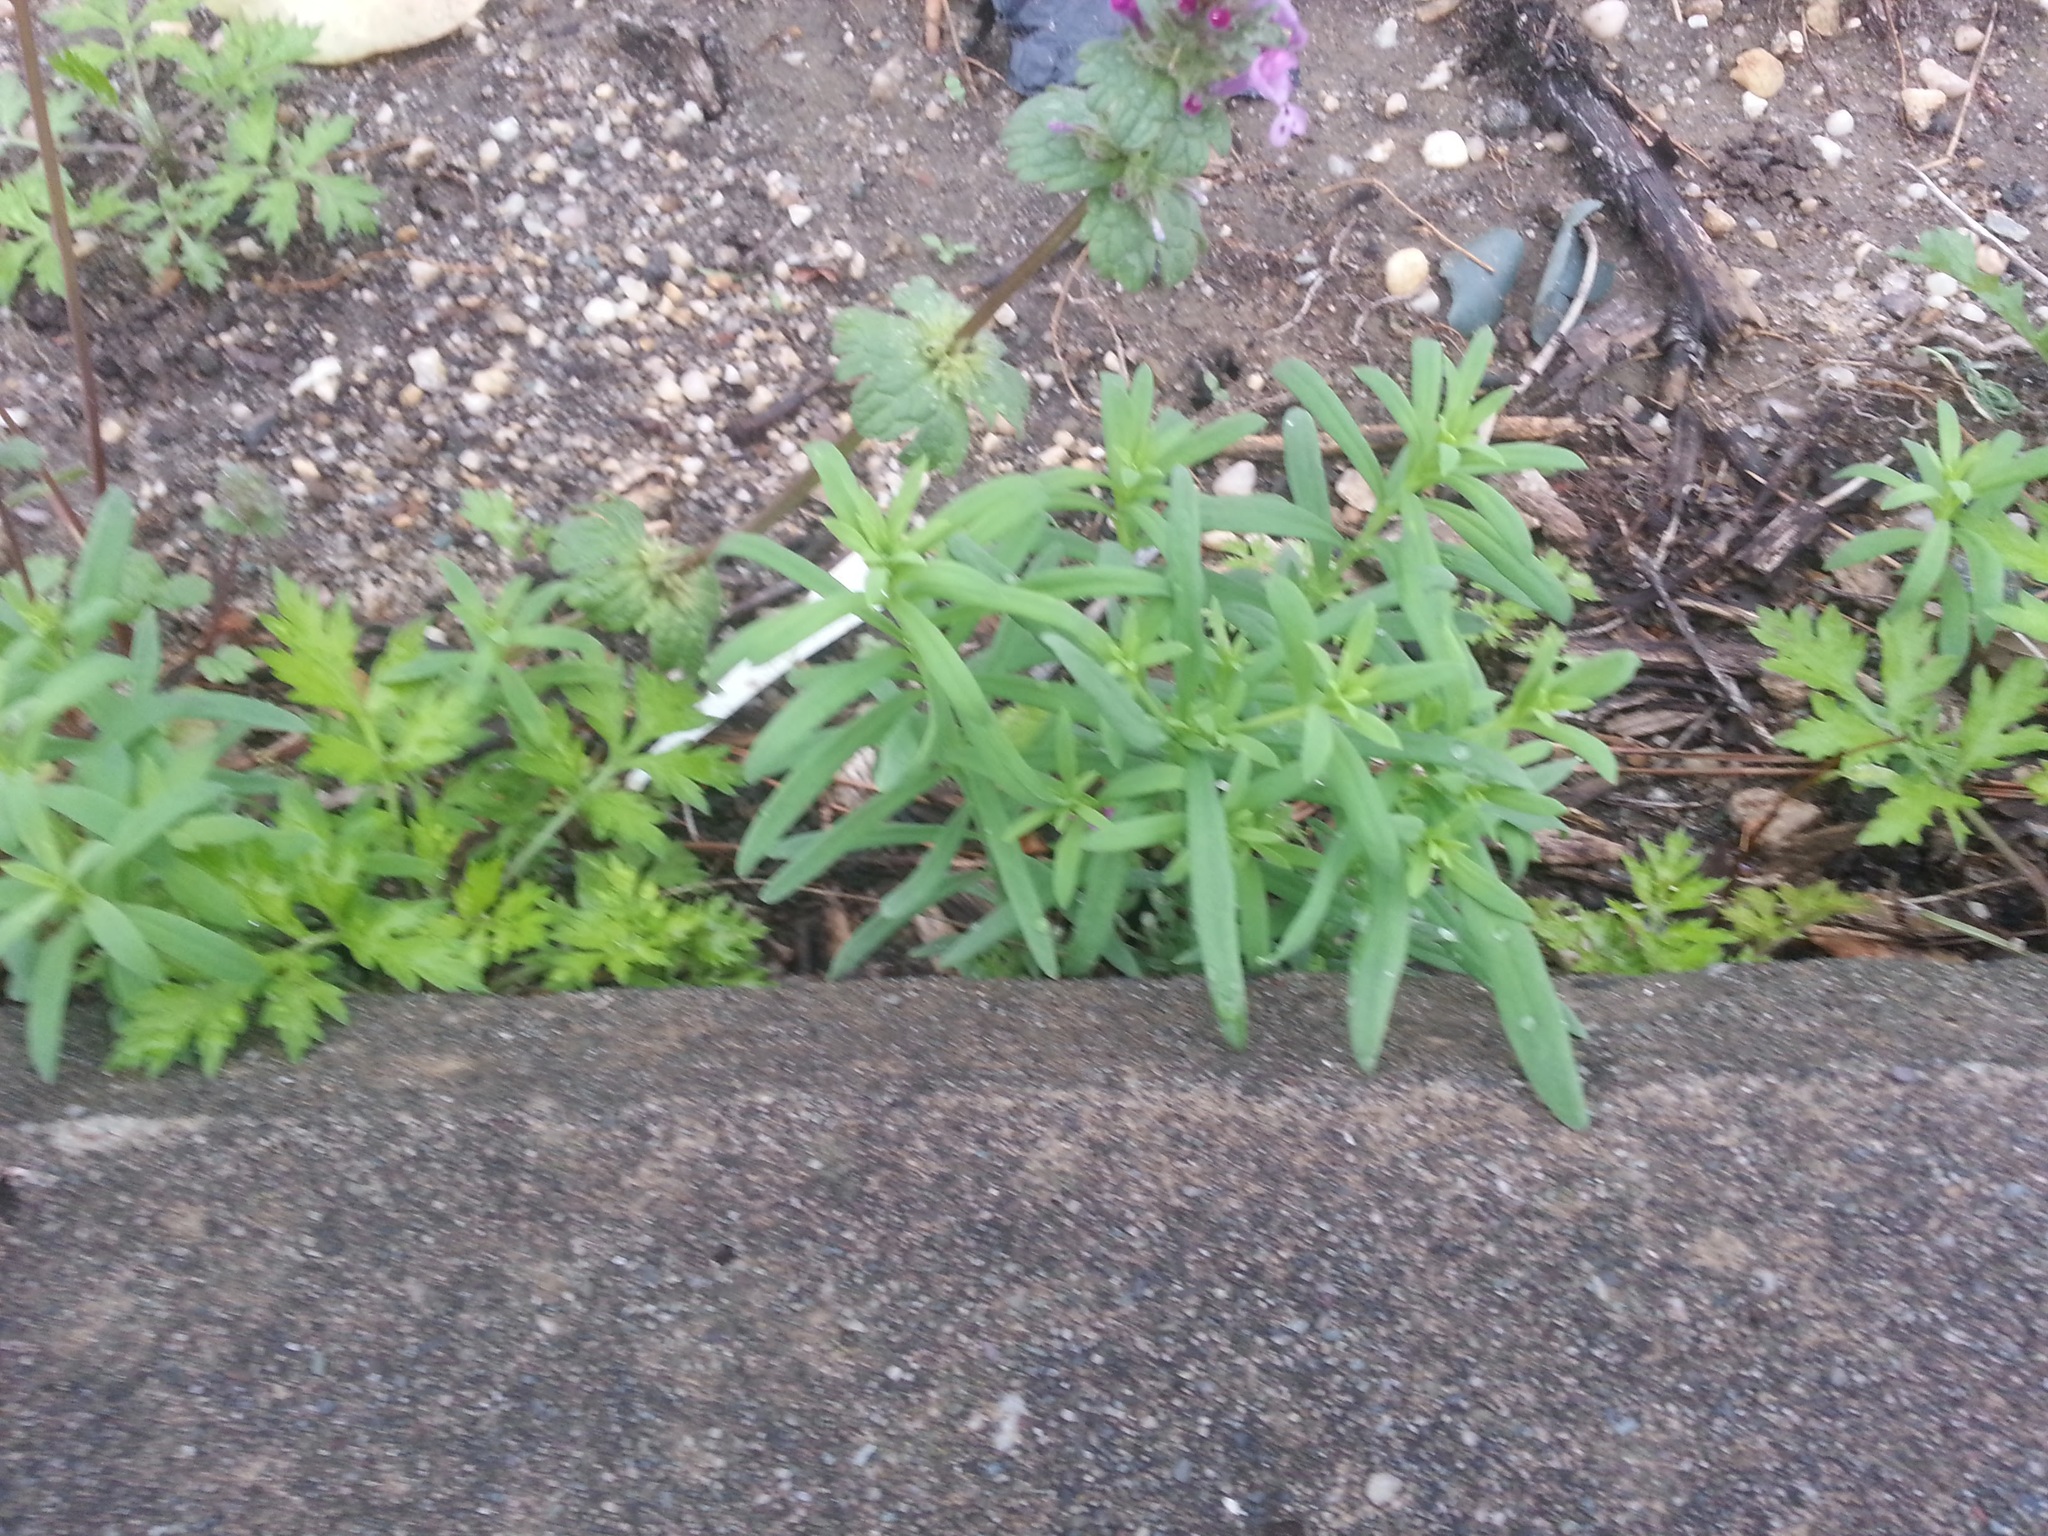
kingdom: Plantae
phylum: Tracheophyta
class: Magnoliopsida
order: Lamiales
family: Lamiaceae
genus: Lamium
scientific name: Lamium amplexicaule
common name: Henbit dead-nettle
